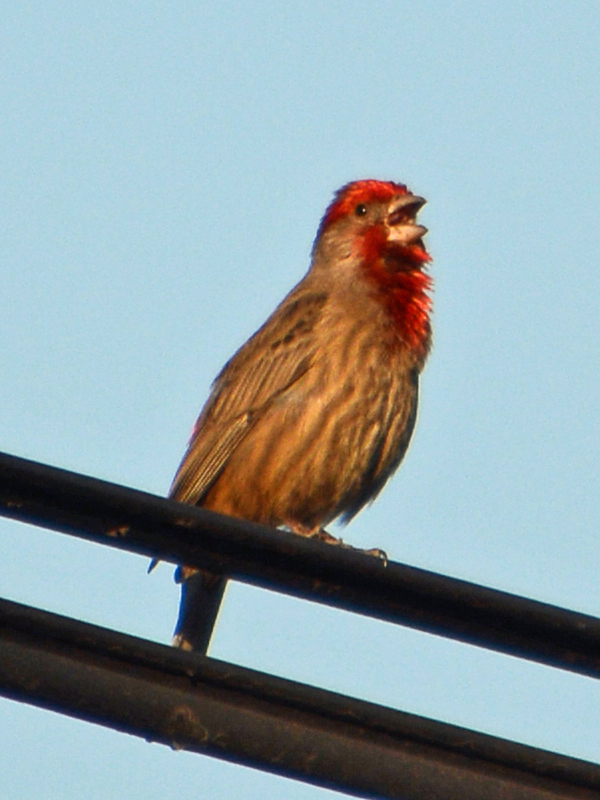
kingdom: Animalia
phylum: Chordata
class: Aves
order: Passeriformes
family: Fringillidae
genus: Haemorhous
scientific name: Haemorhous mexicanus
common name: House finch
